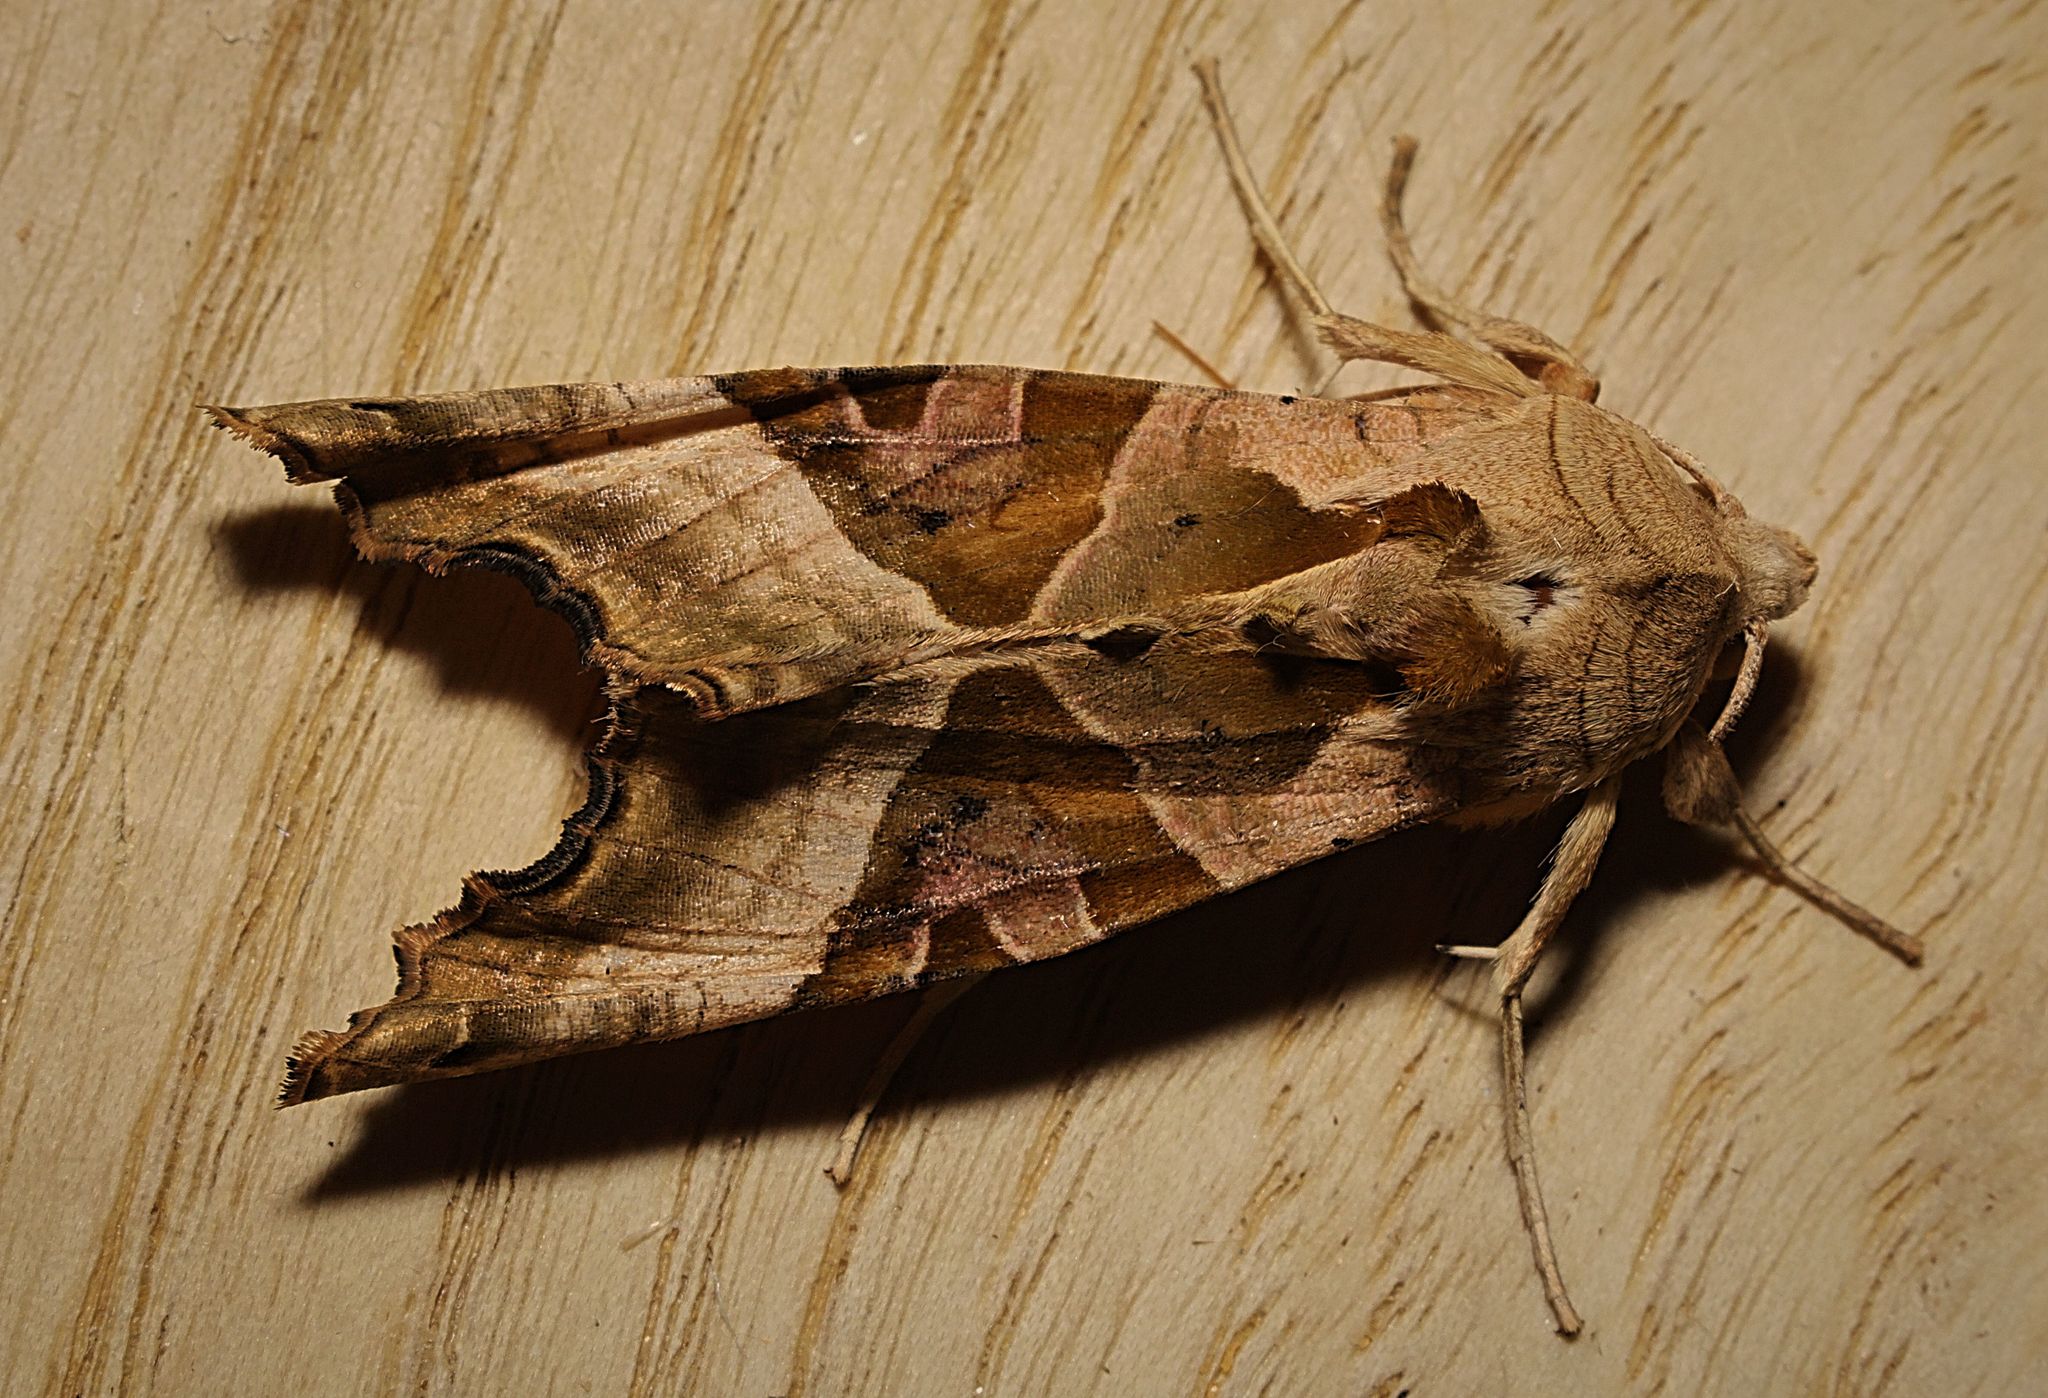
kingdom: Animalia
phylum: Arthropoda
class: Insecta
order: Lepidoptera
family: Noctuidae
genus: Phlogophora
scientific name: Phlogophora meticulosa
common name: Angle shades
